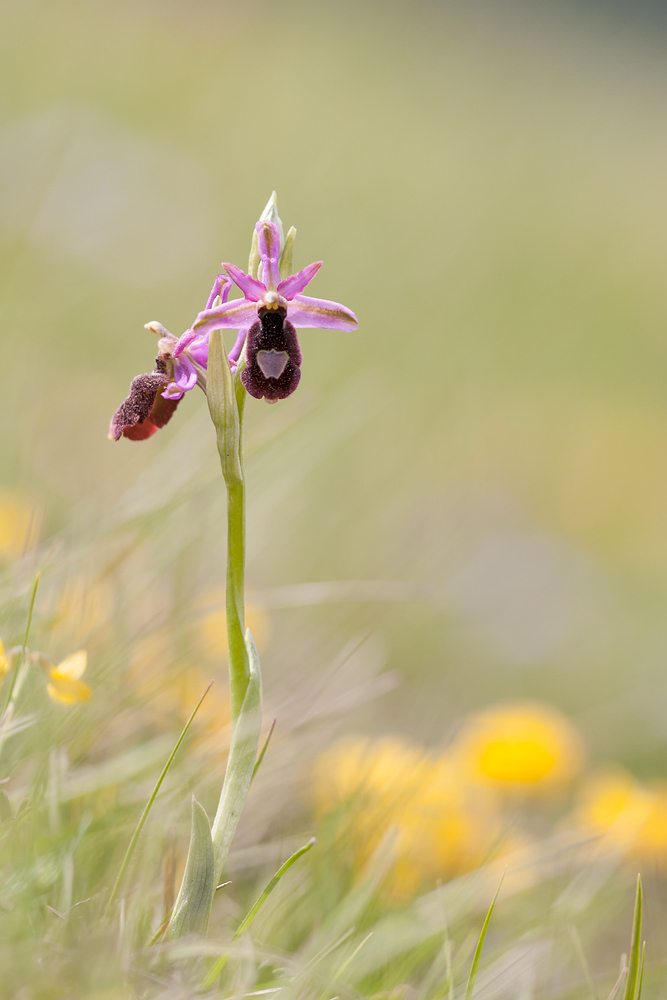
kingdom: Plantae
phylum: Tracheophyta
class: Liliopsida
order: Asparagales
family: Orchidaceae
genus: Ophrys
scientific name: Ophrys flavicans
